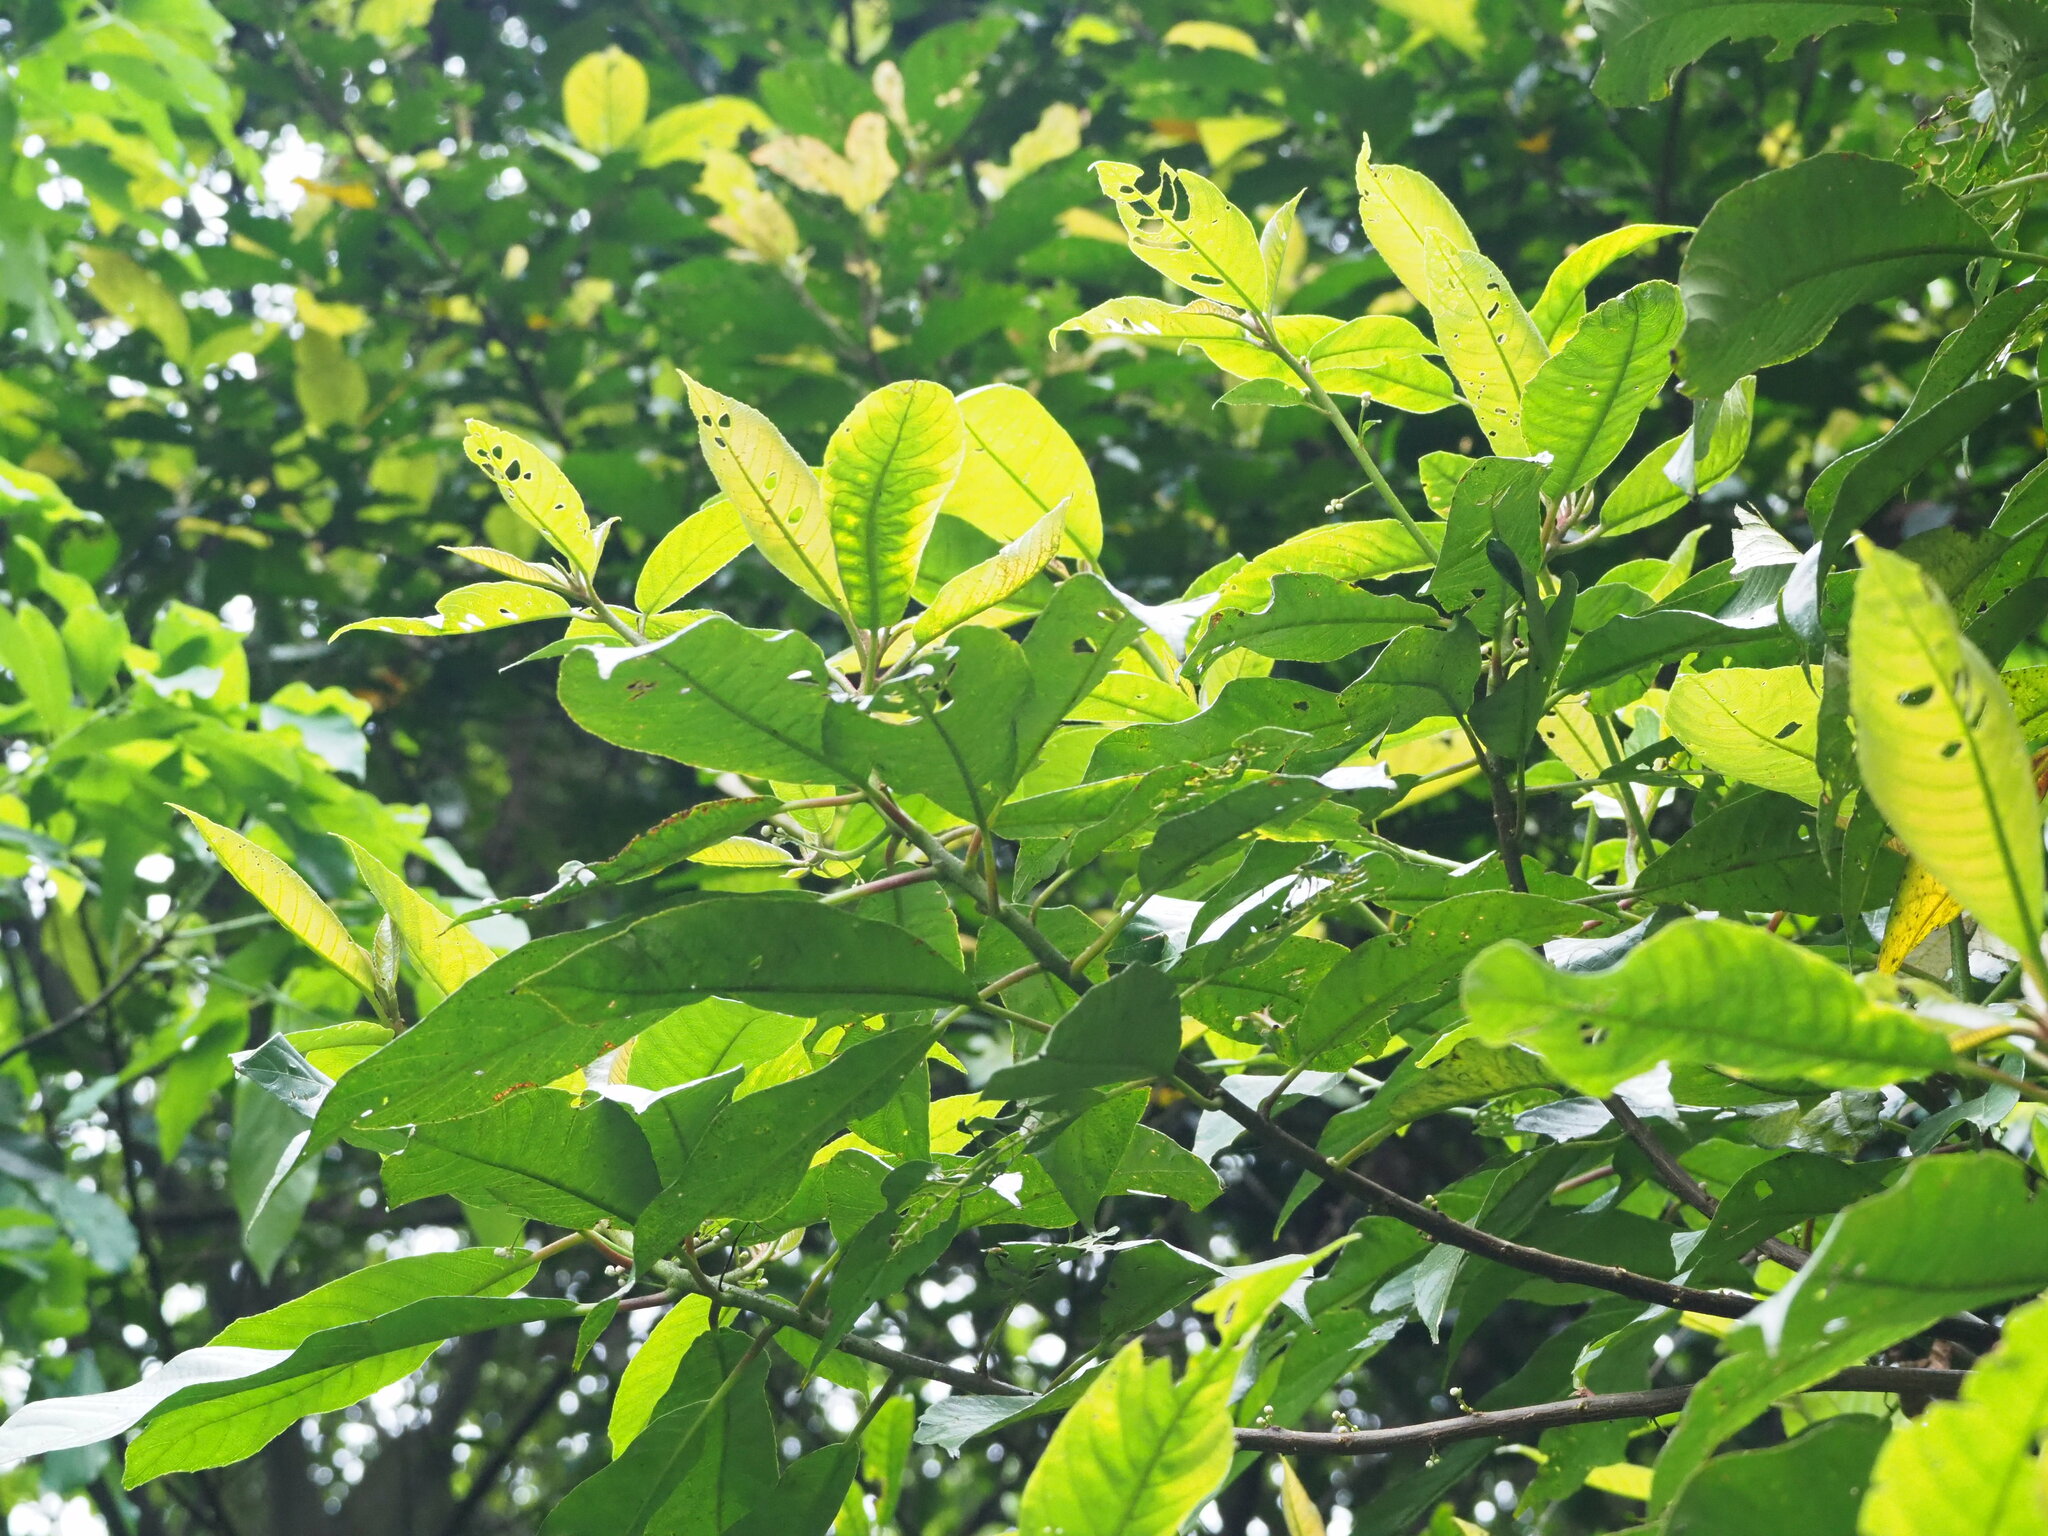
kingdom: Plantae
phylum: Tracheophyta
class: Magnoliopsida
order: Ericales
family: Actinidiaceae
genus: Saurauia
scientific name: Saurauia tristyla
